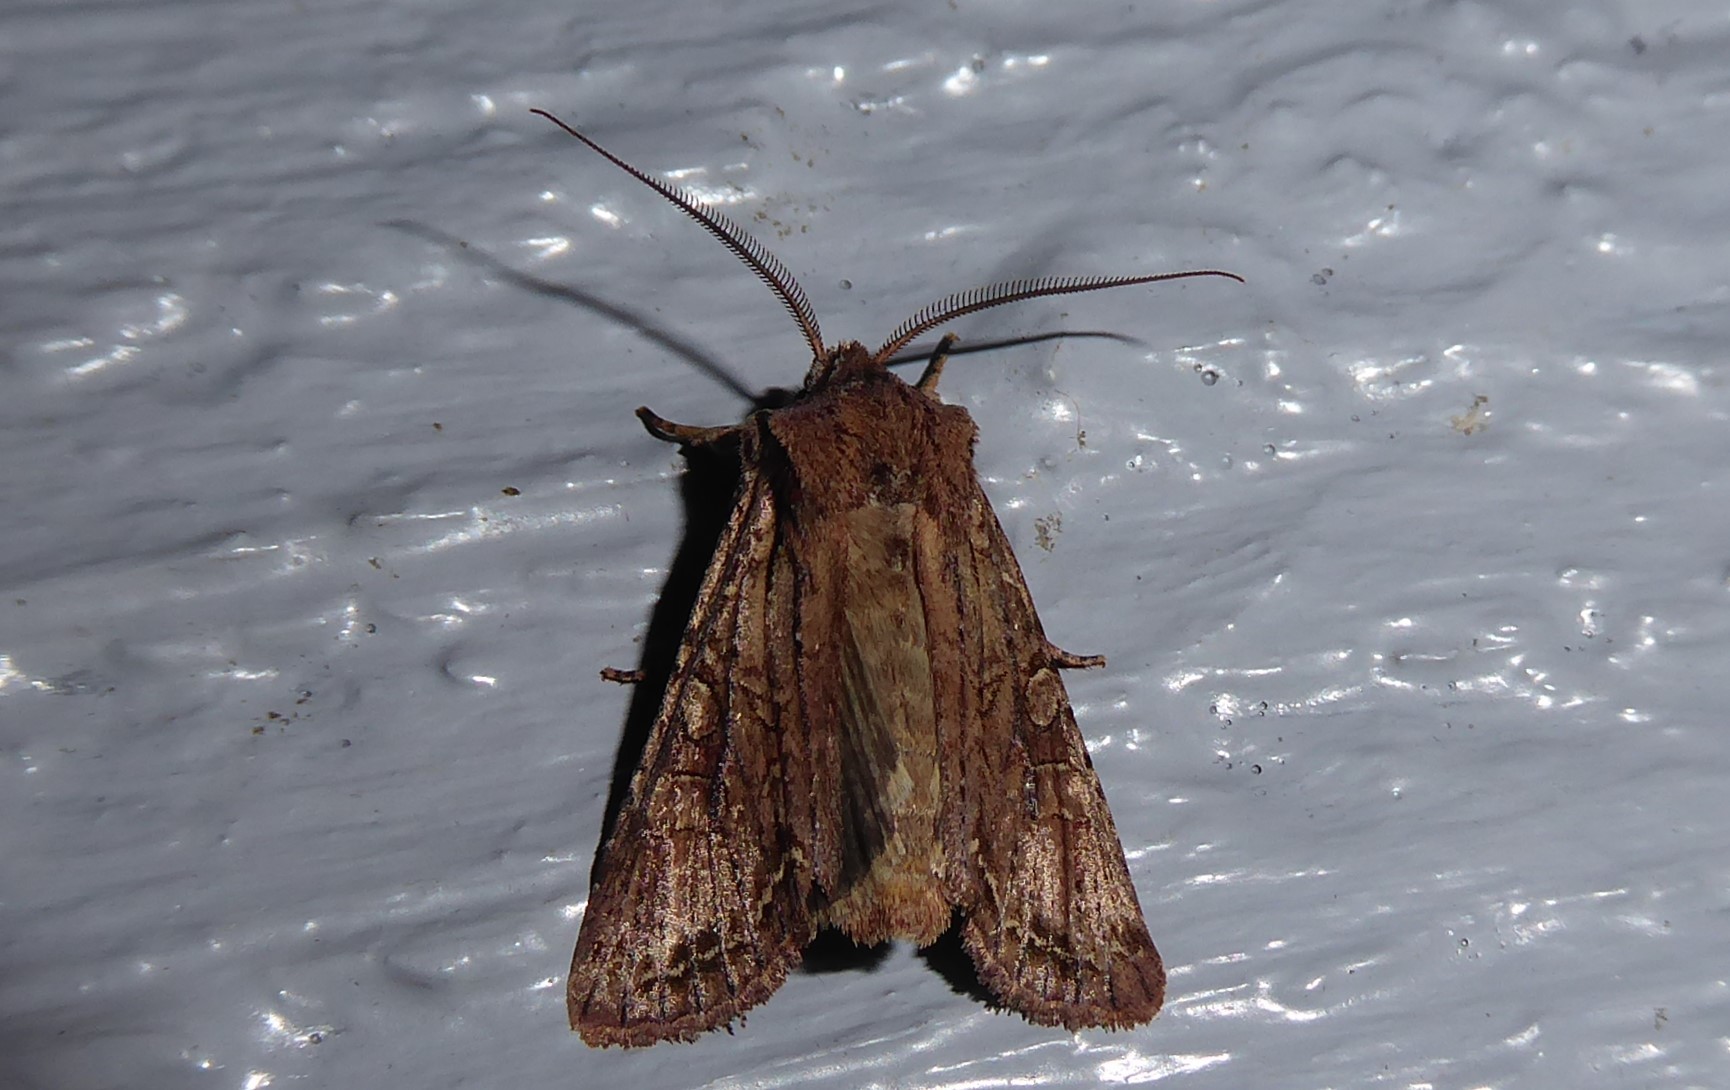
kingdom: Animalia
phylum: Arthropoda
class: Insecta
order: Lepidoptera
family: Noctuidae
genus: Ichneutica
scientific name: Ichneutica
